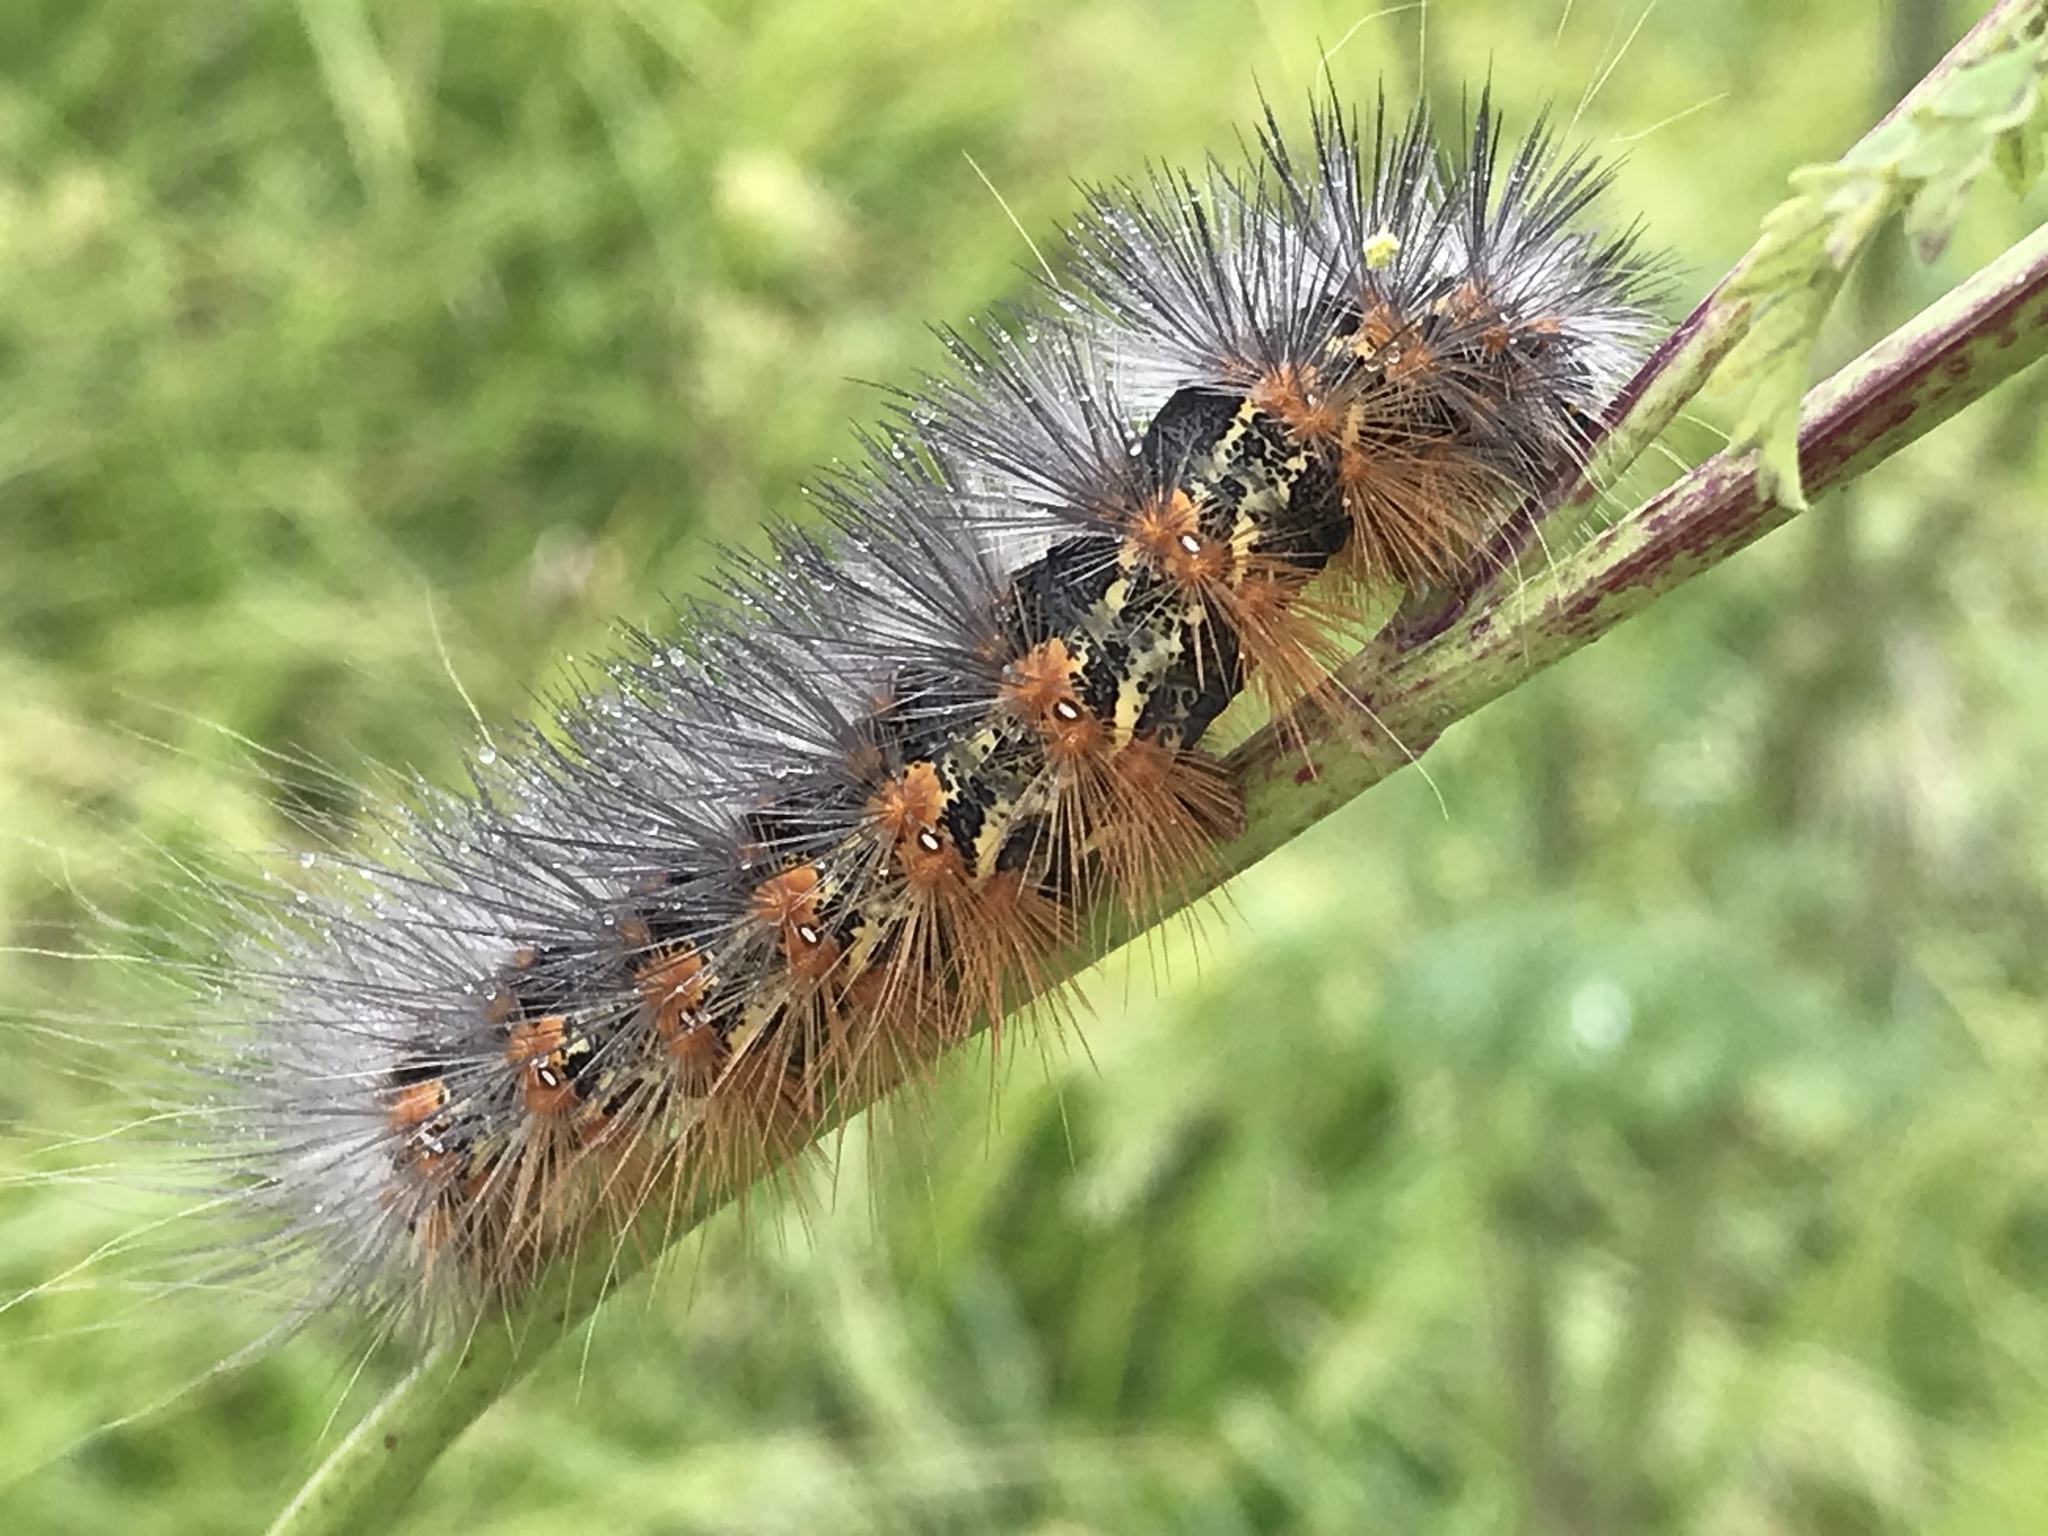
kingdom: Animalia
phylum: Arthropoda
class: Insecta
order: Lepidoptera
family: Erebidae
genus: Estigmene
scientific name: Estigmene acrea
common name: Salt marsh moth
